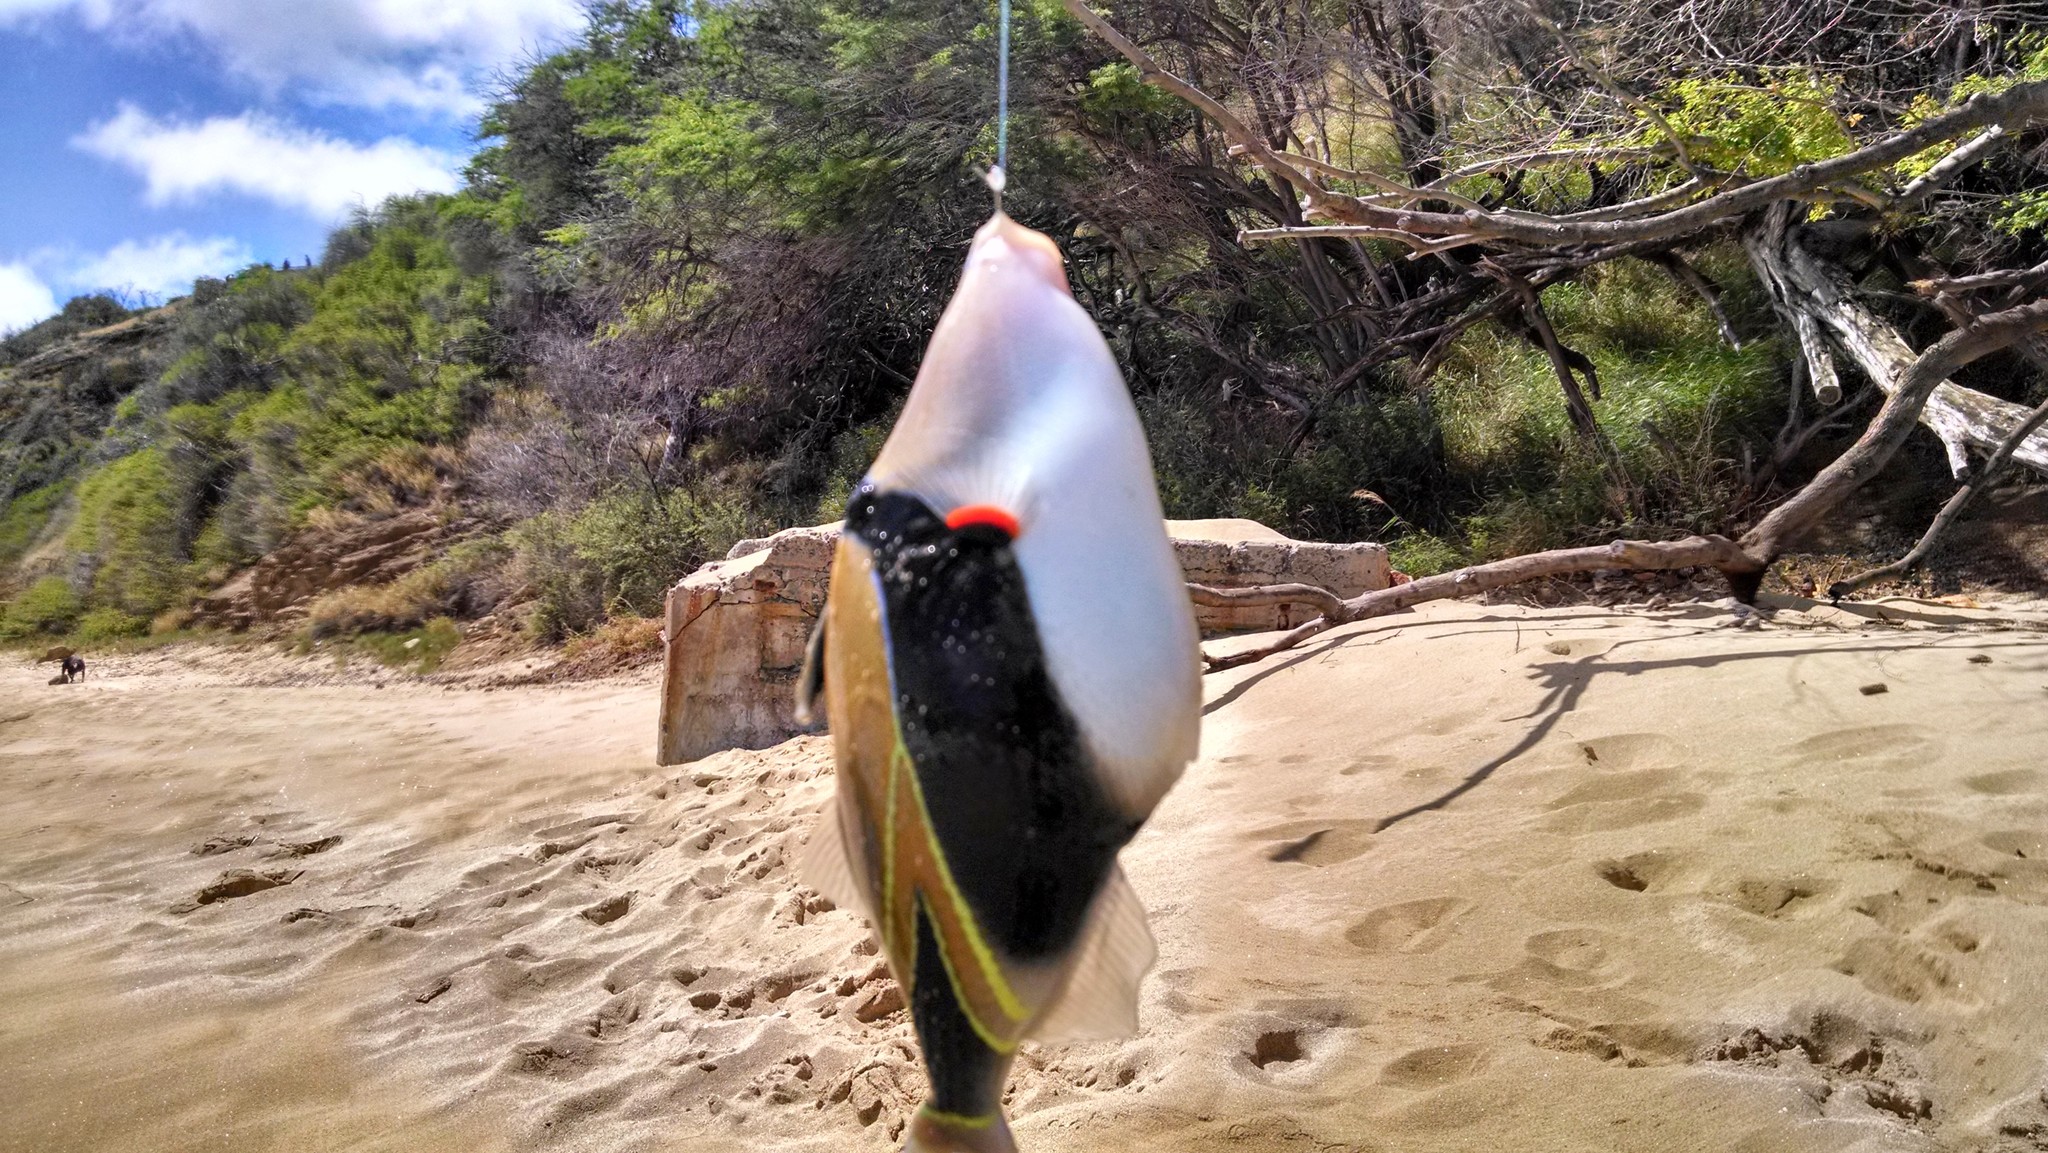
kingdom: Animalia
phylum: Chordata
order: Tetraodontiformes
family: Balistidae
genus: Rhinecanthus
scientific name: Rhinecanthus rectangulus
